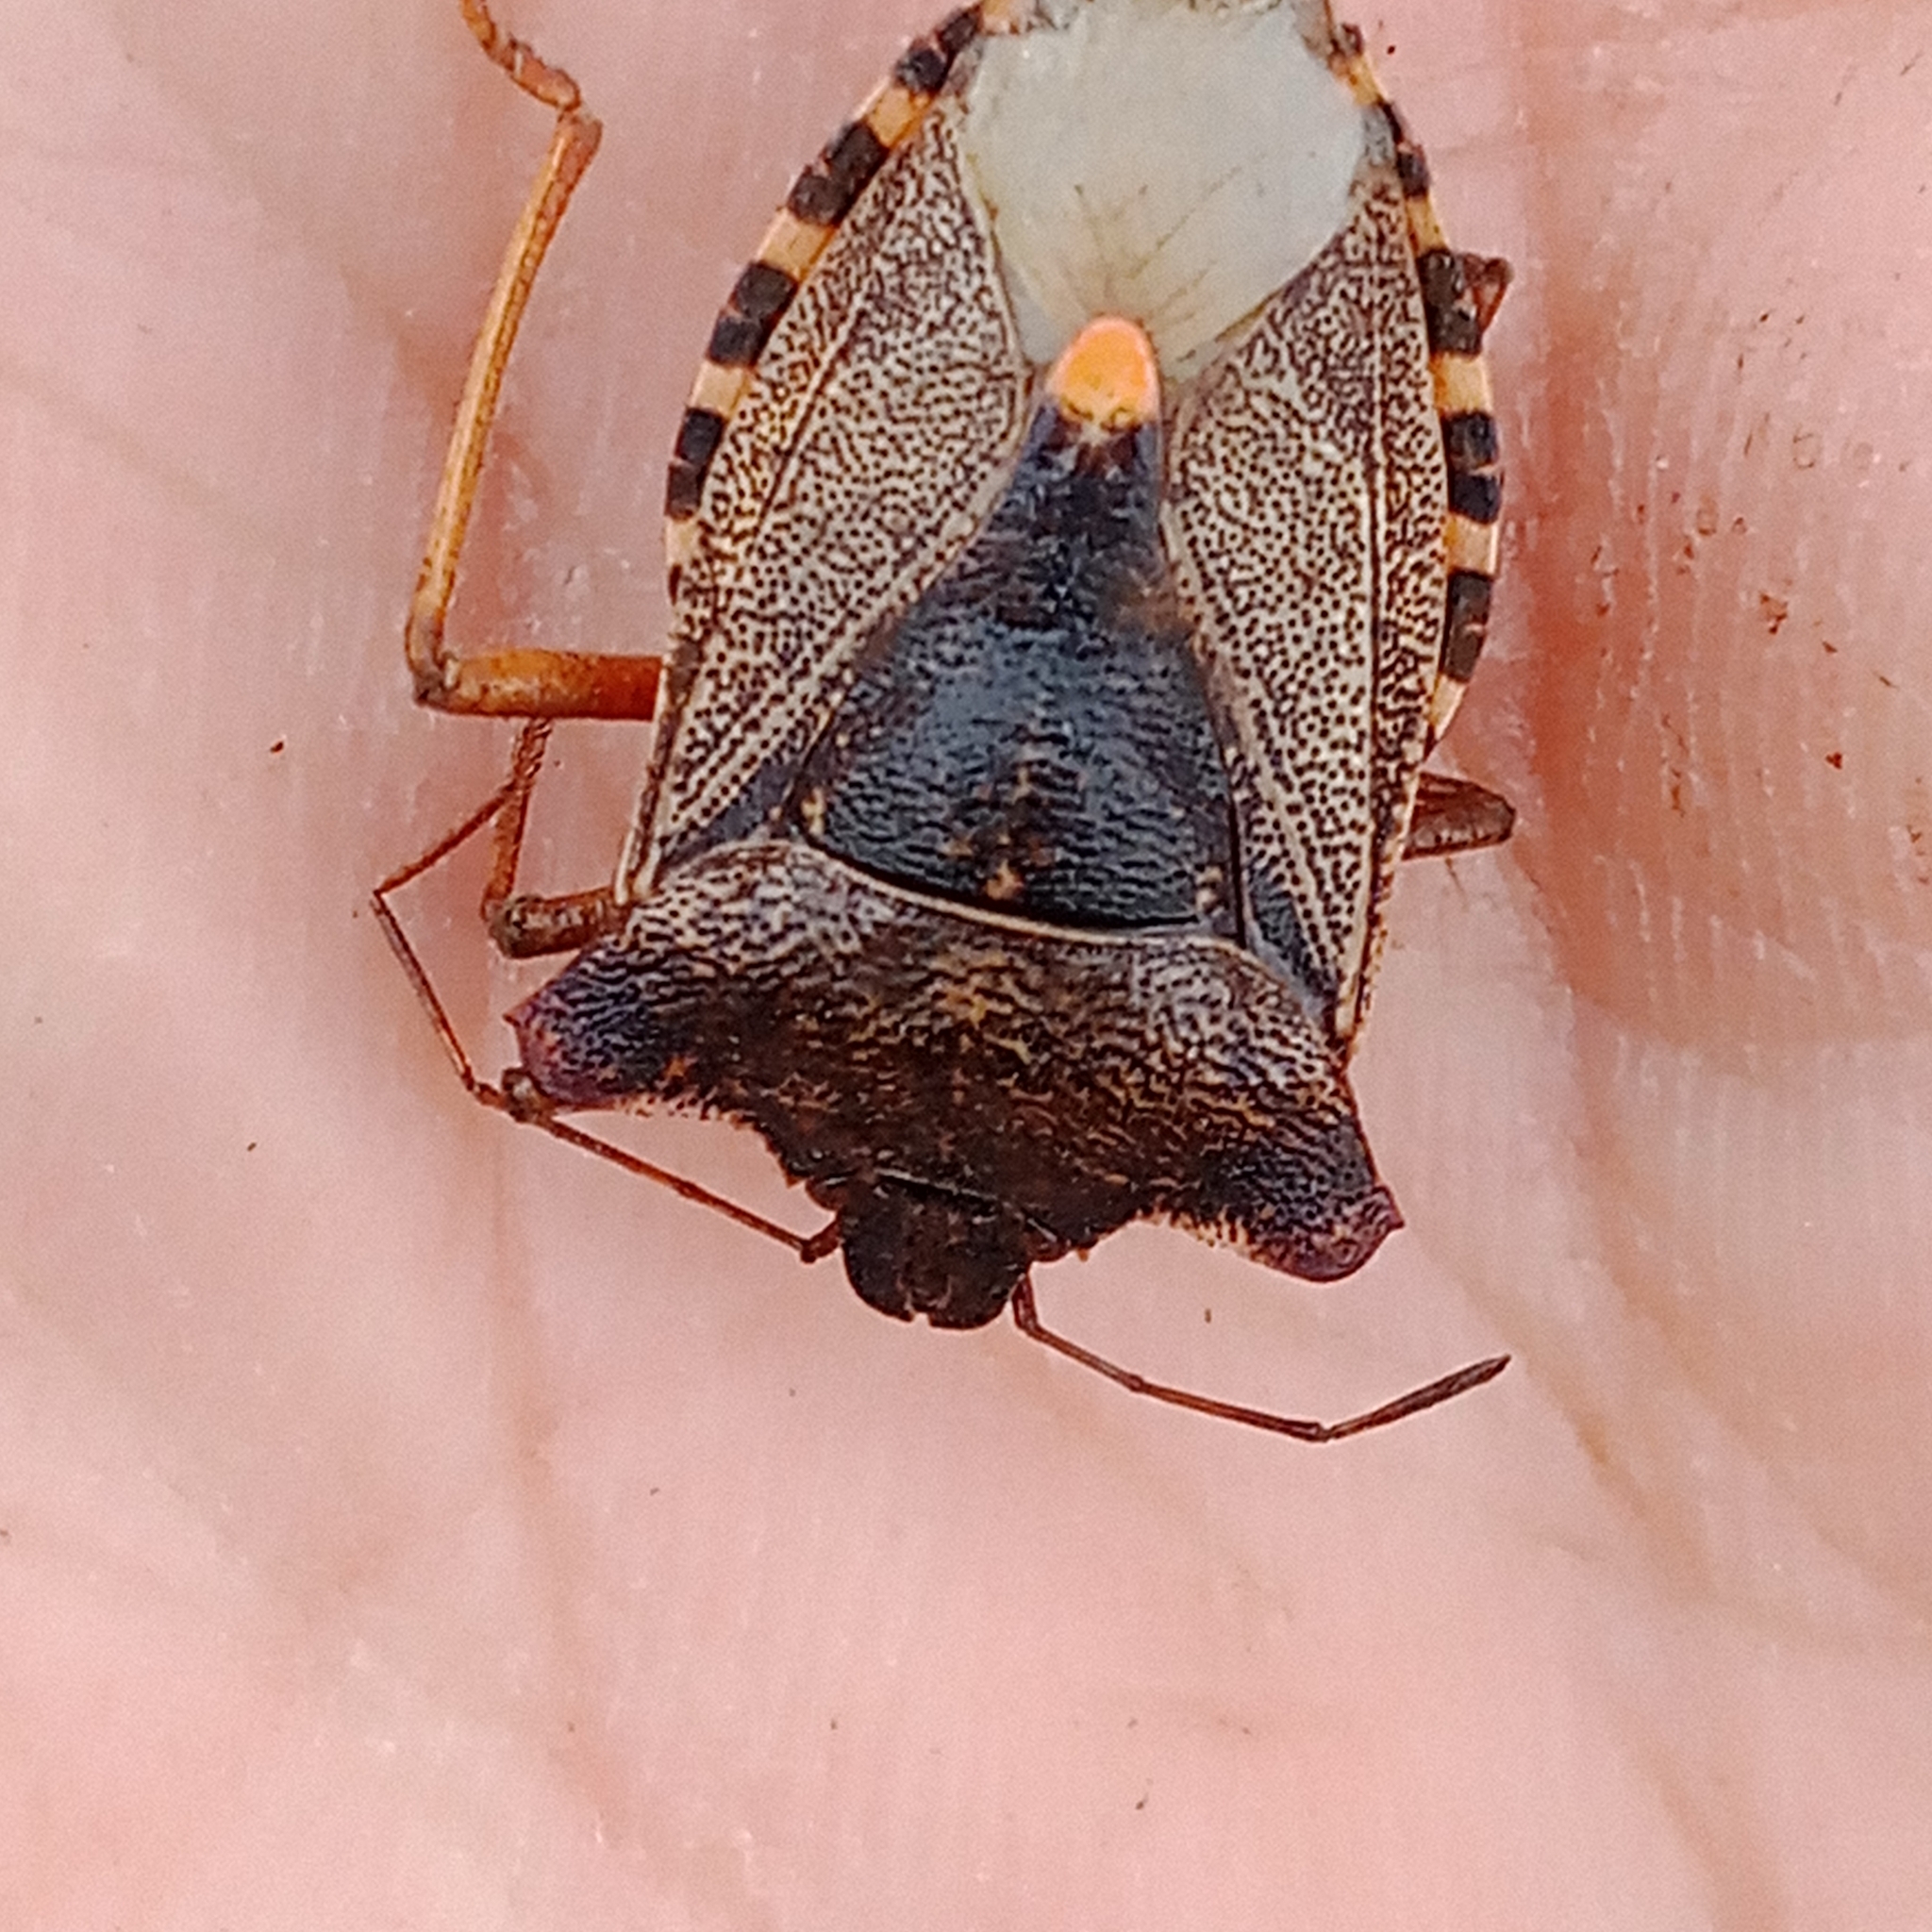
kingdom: Animalia
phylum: Arthropoda
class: Insecta
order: Hemiptera
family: Pentatomidae
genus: Pentatoma
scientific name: Pentatoma rufipes
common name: Forest bug
